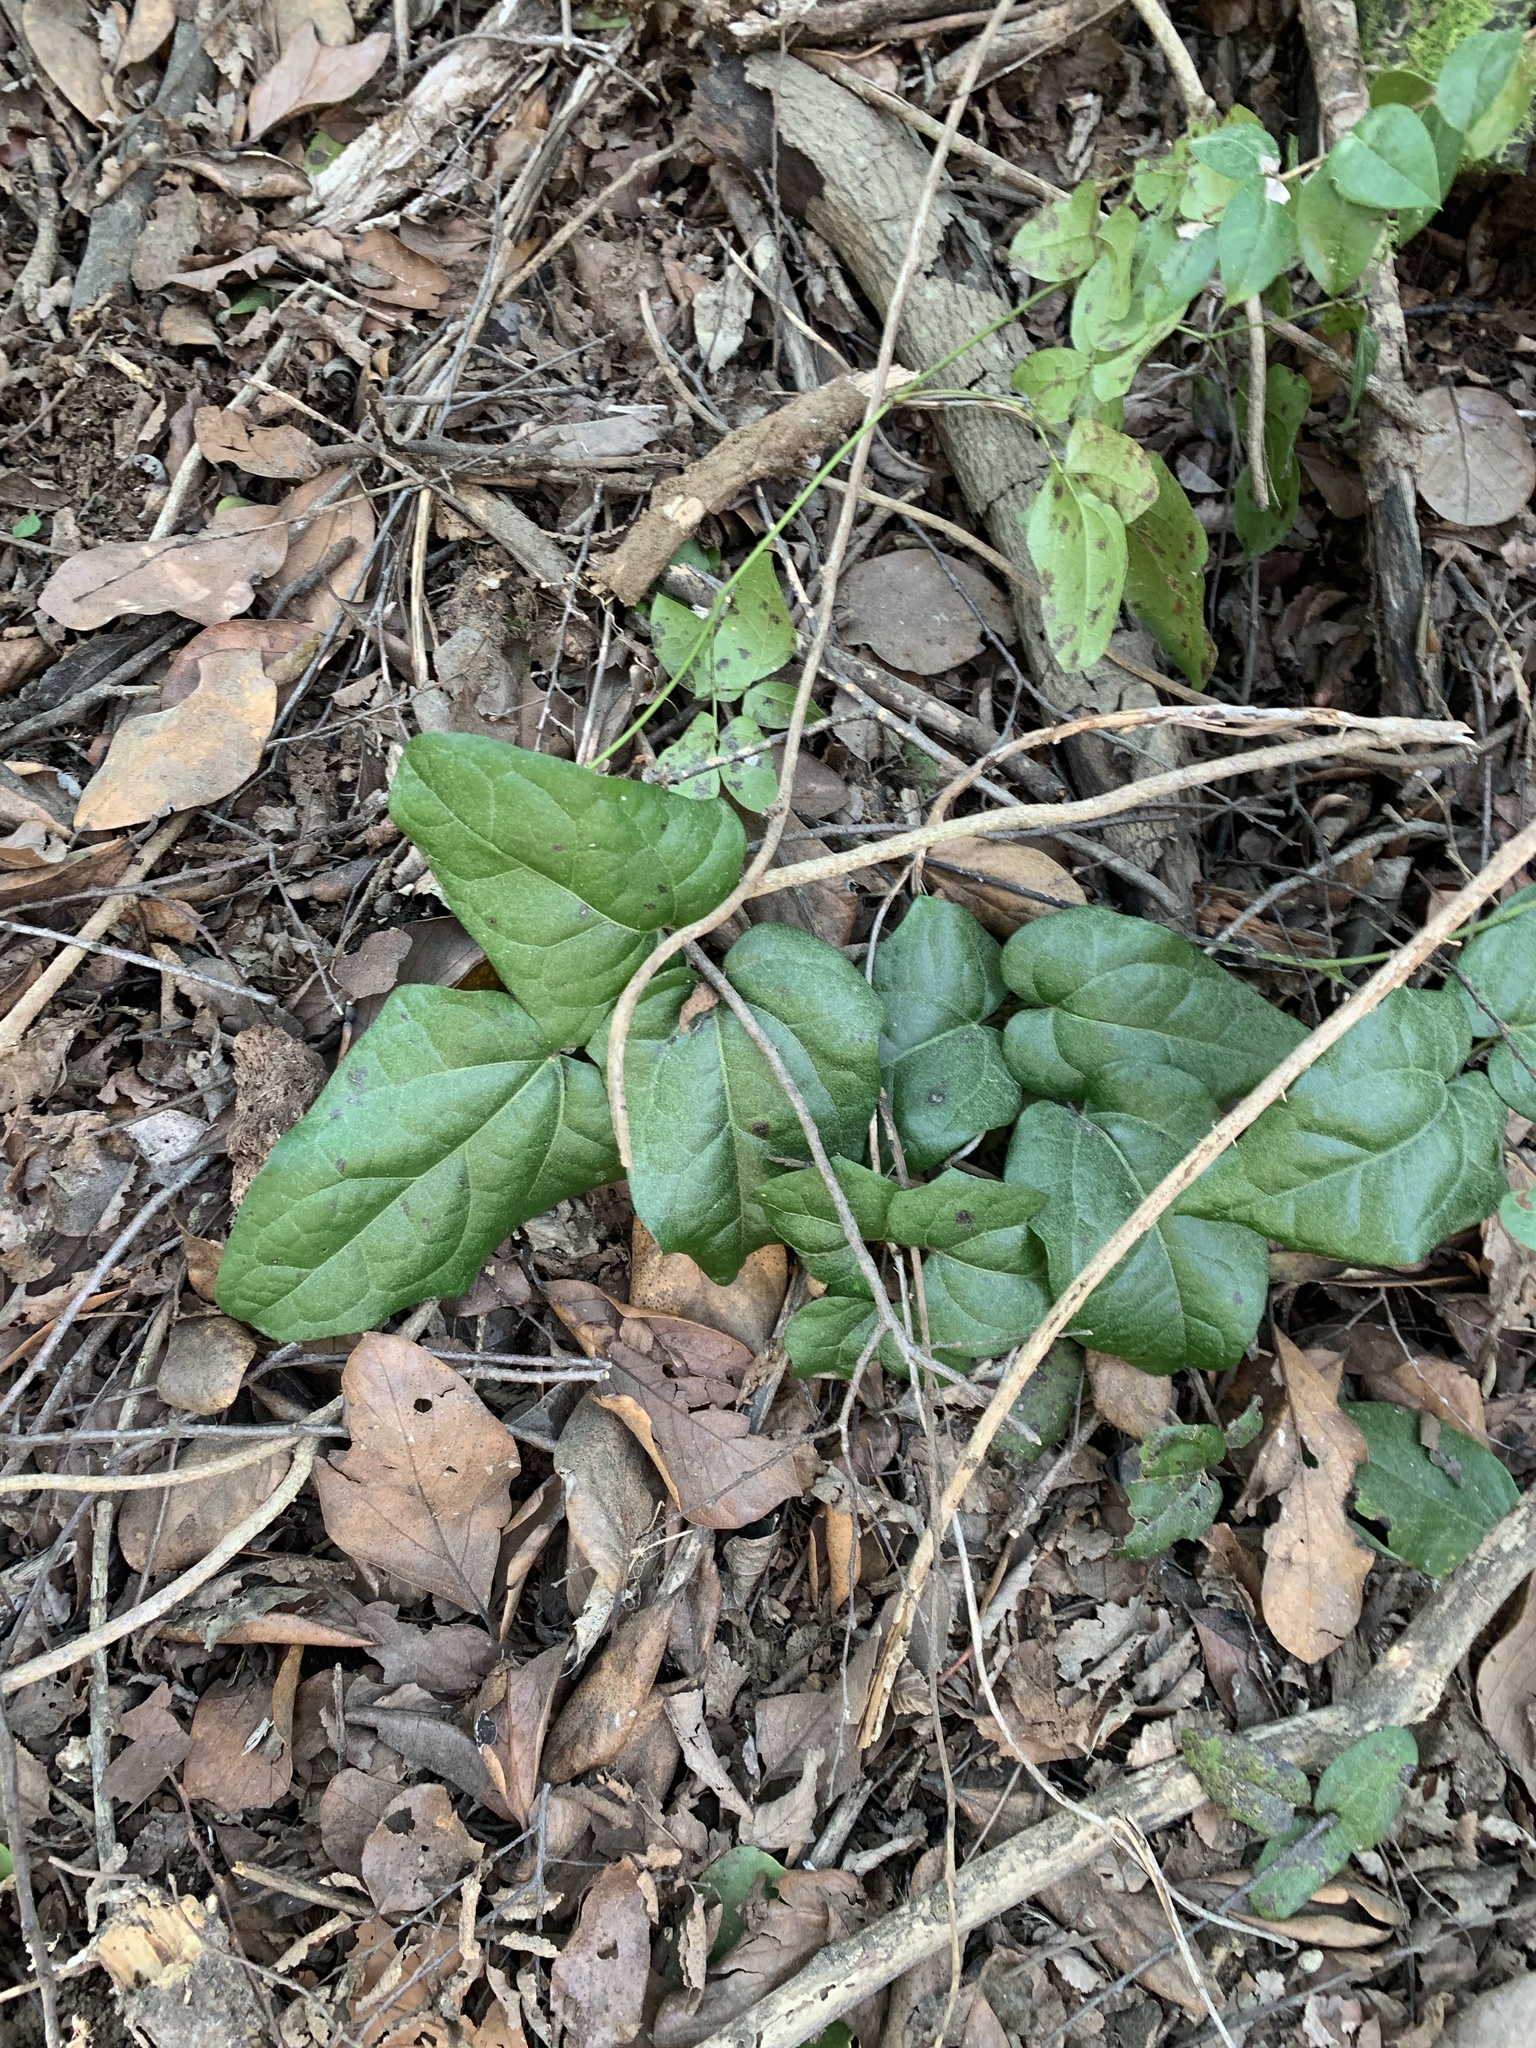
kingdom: Plantae
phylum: Tracheophyta
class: Magnoliopsida
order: Ranunculales
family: Lardizabalaceae
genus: Boquila
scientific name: Boquila trifoliolata
